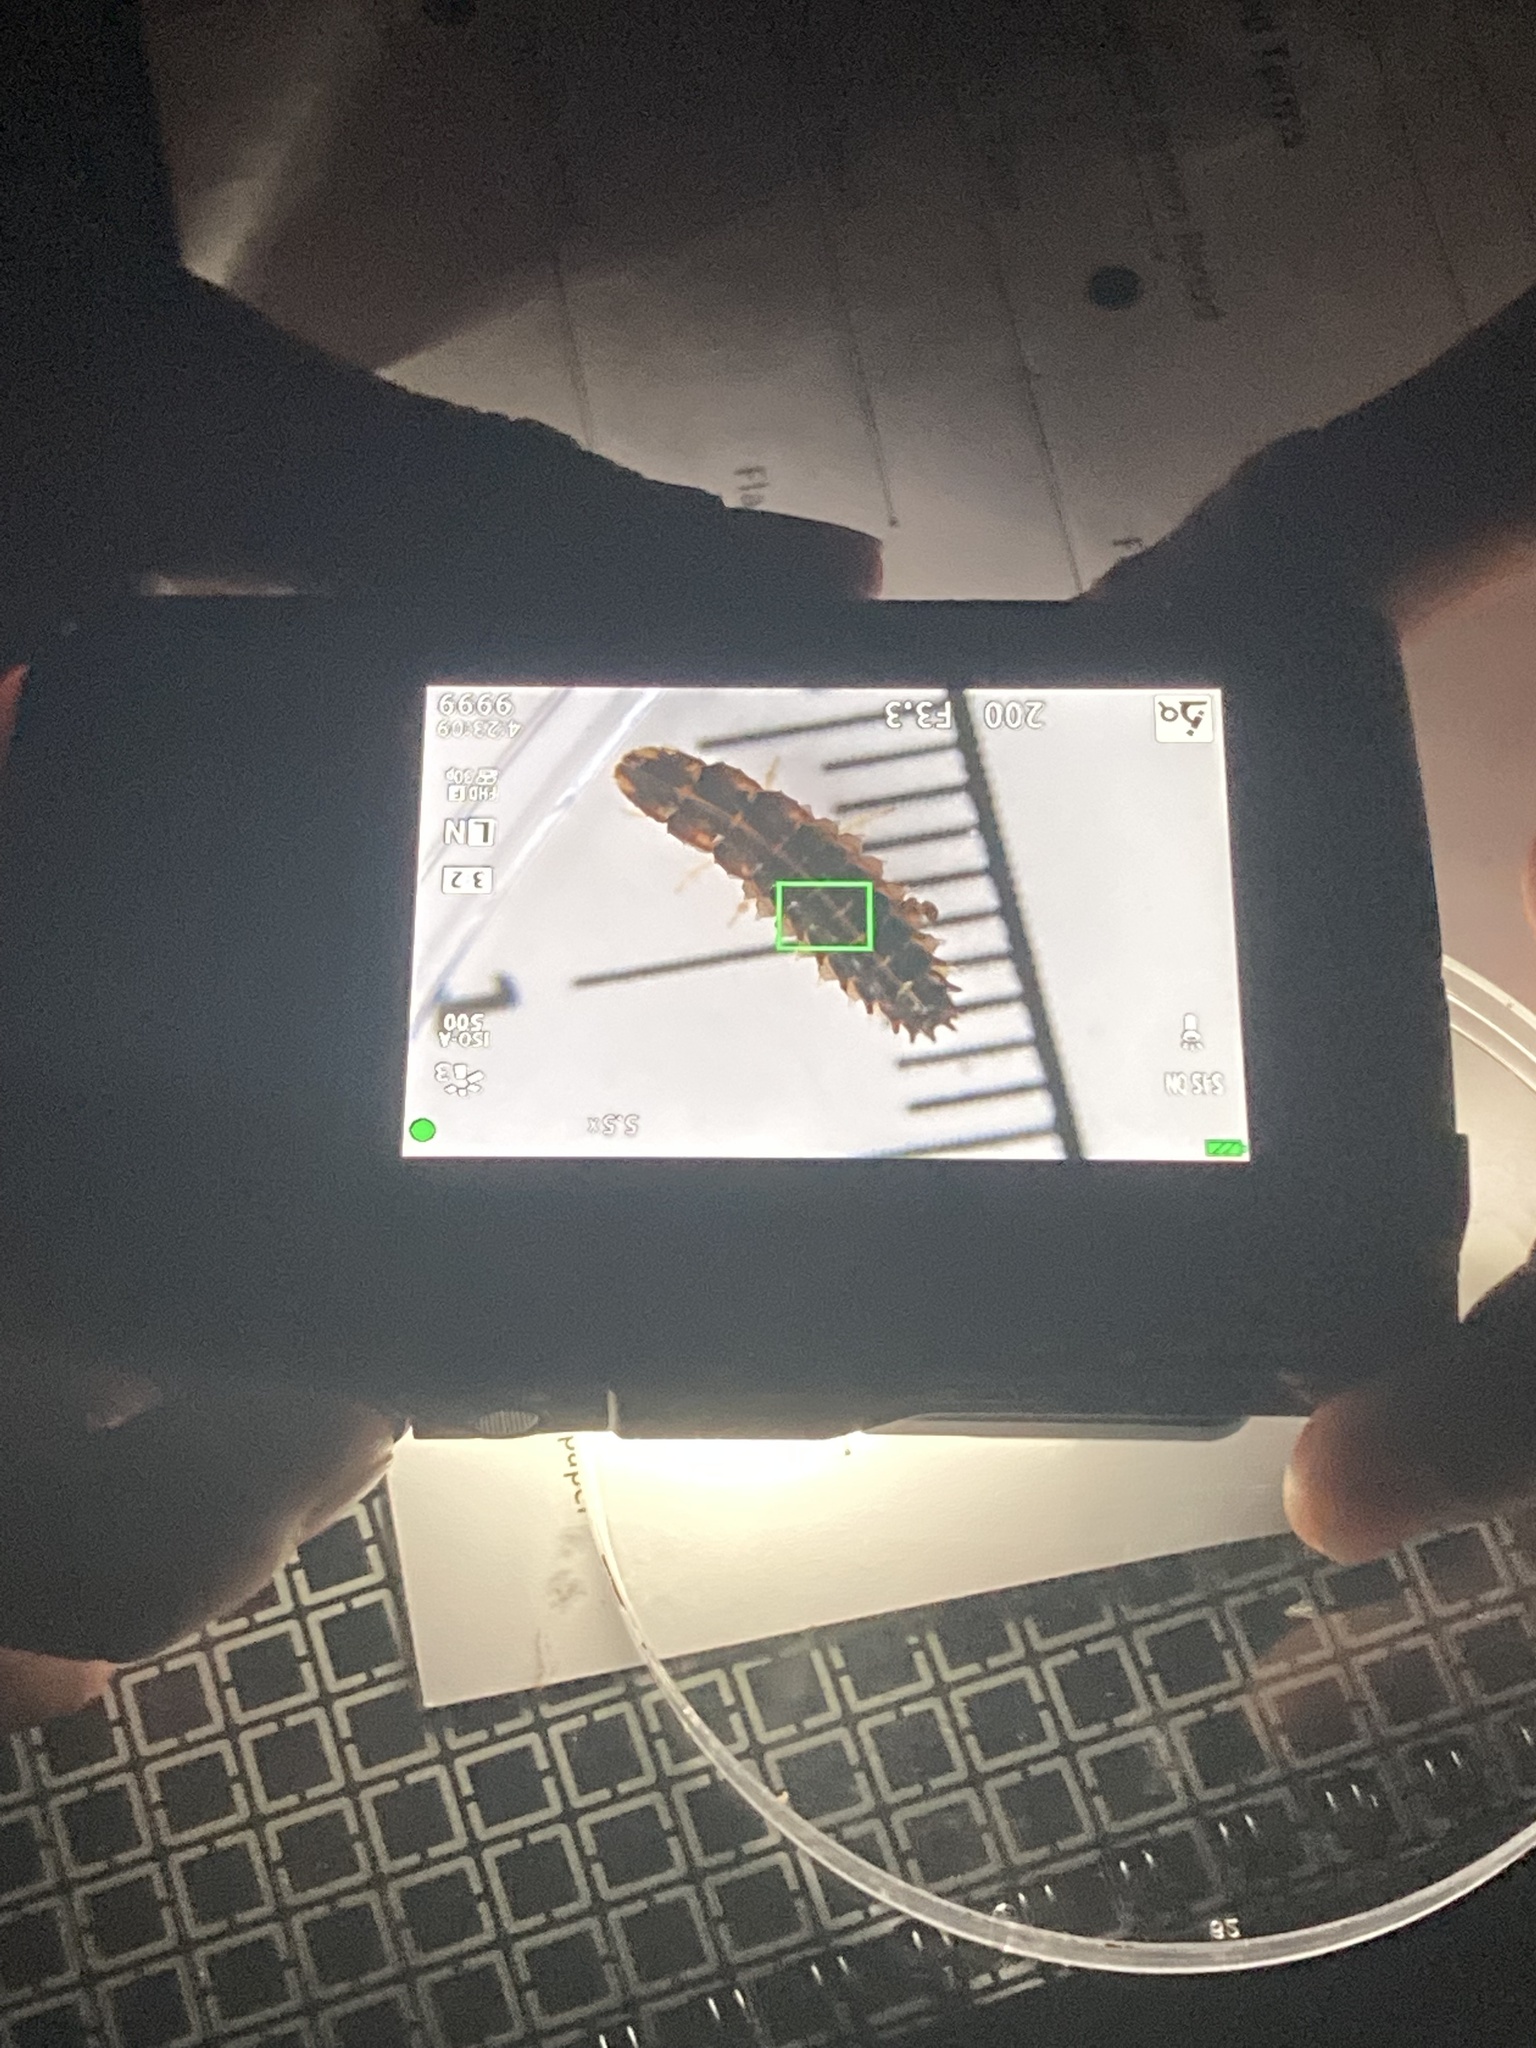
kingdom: Animalia
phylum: Arthropoda
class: Insecta
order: Coleoptera
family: Lampyridae
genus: Micronaspis
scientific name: Micronaspis floridana
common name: Florida intertidal firefly
